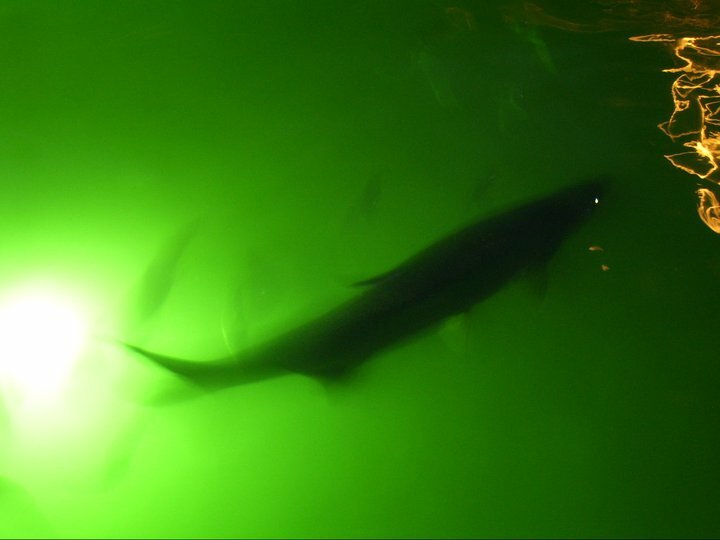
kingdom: Animalia
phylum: Chordata
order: Elopiformes
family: Megalopidae
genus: Megalops
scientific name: Megalops atlanticus
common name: Tarpon
